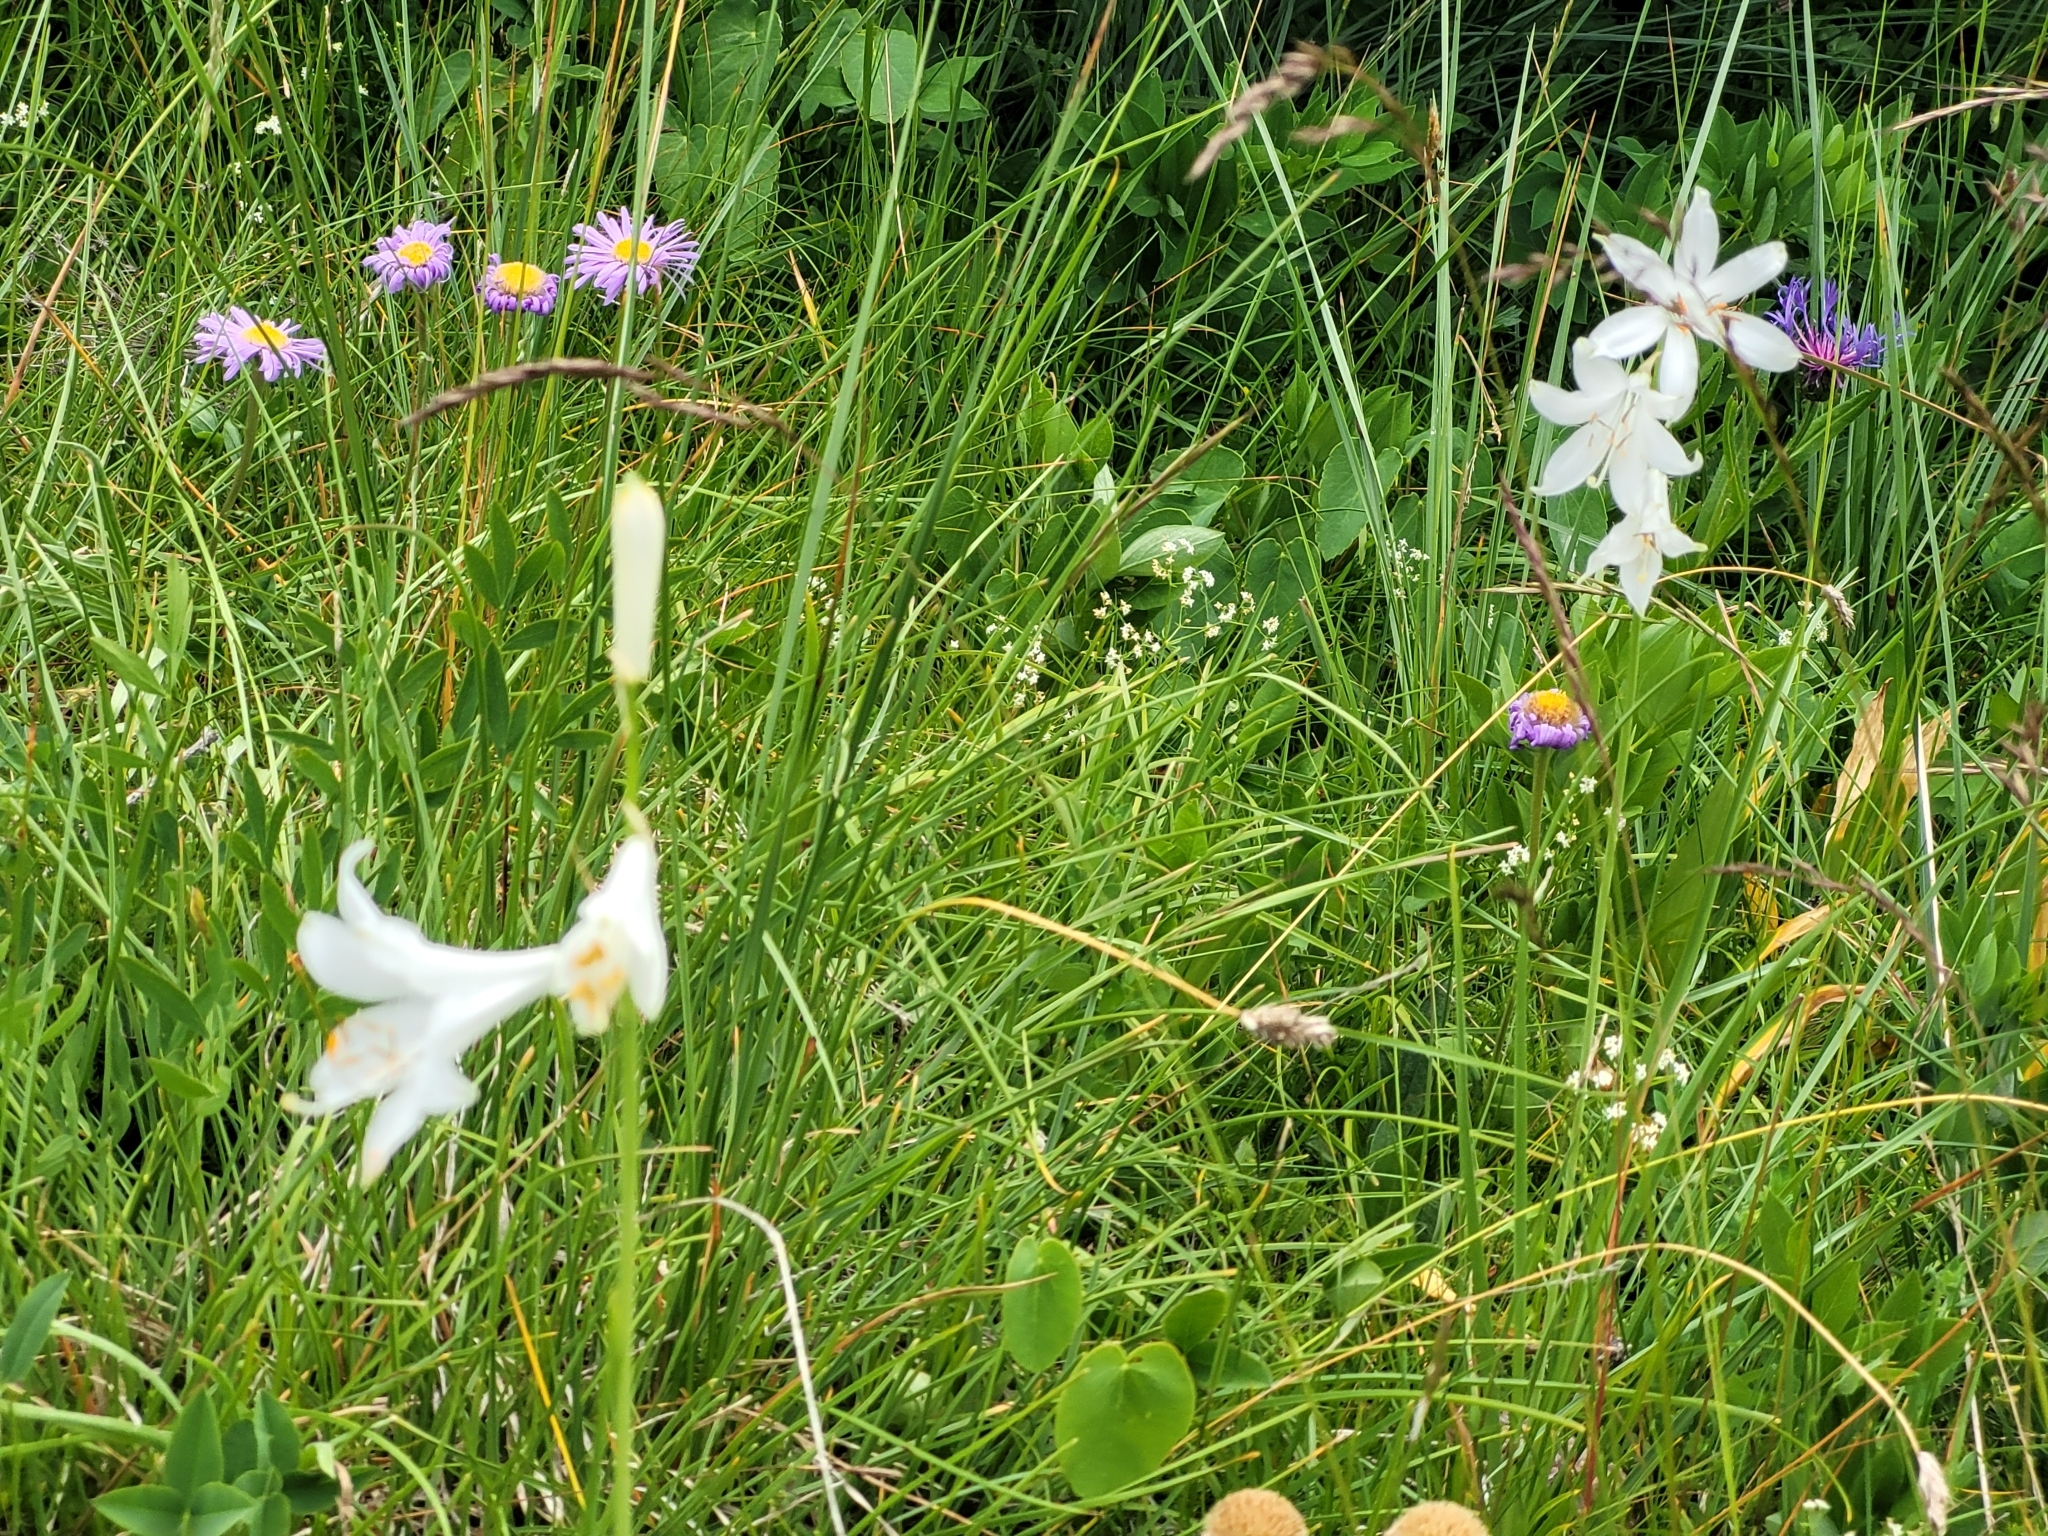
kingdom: Plantae
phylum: Tracheophyta
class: Liliopsida
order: Asparagales
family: Asparagaceae
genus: Paradisea
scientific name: Paradisea liliastrum
